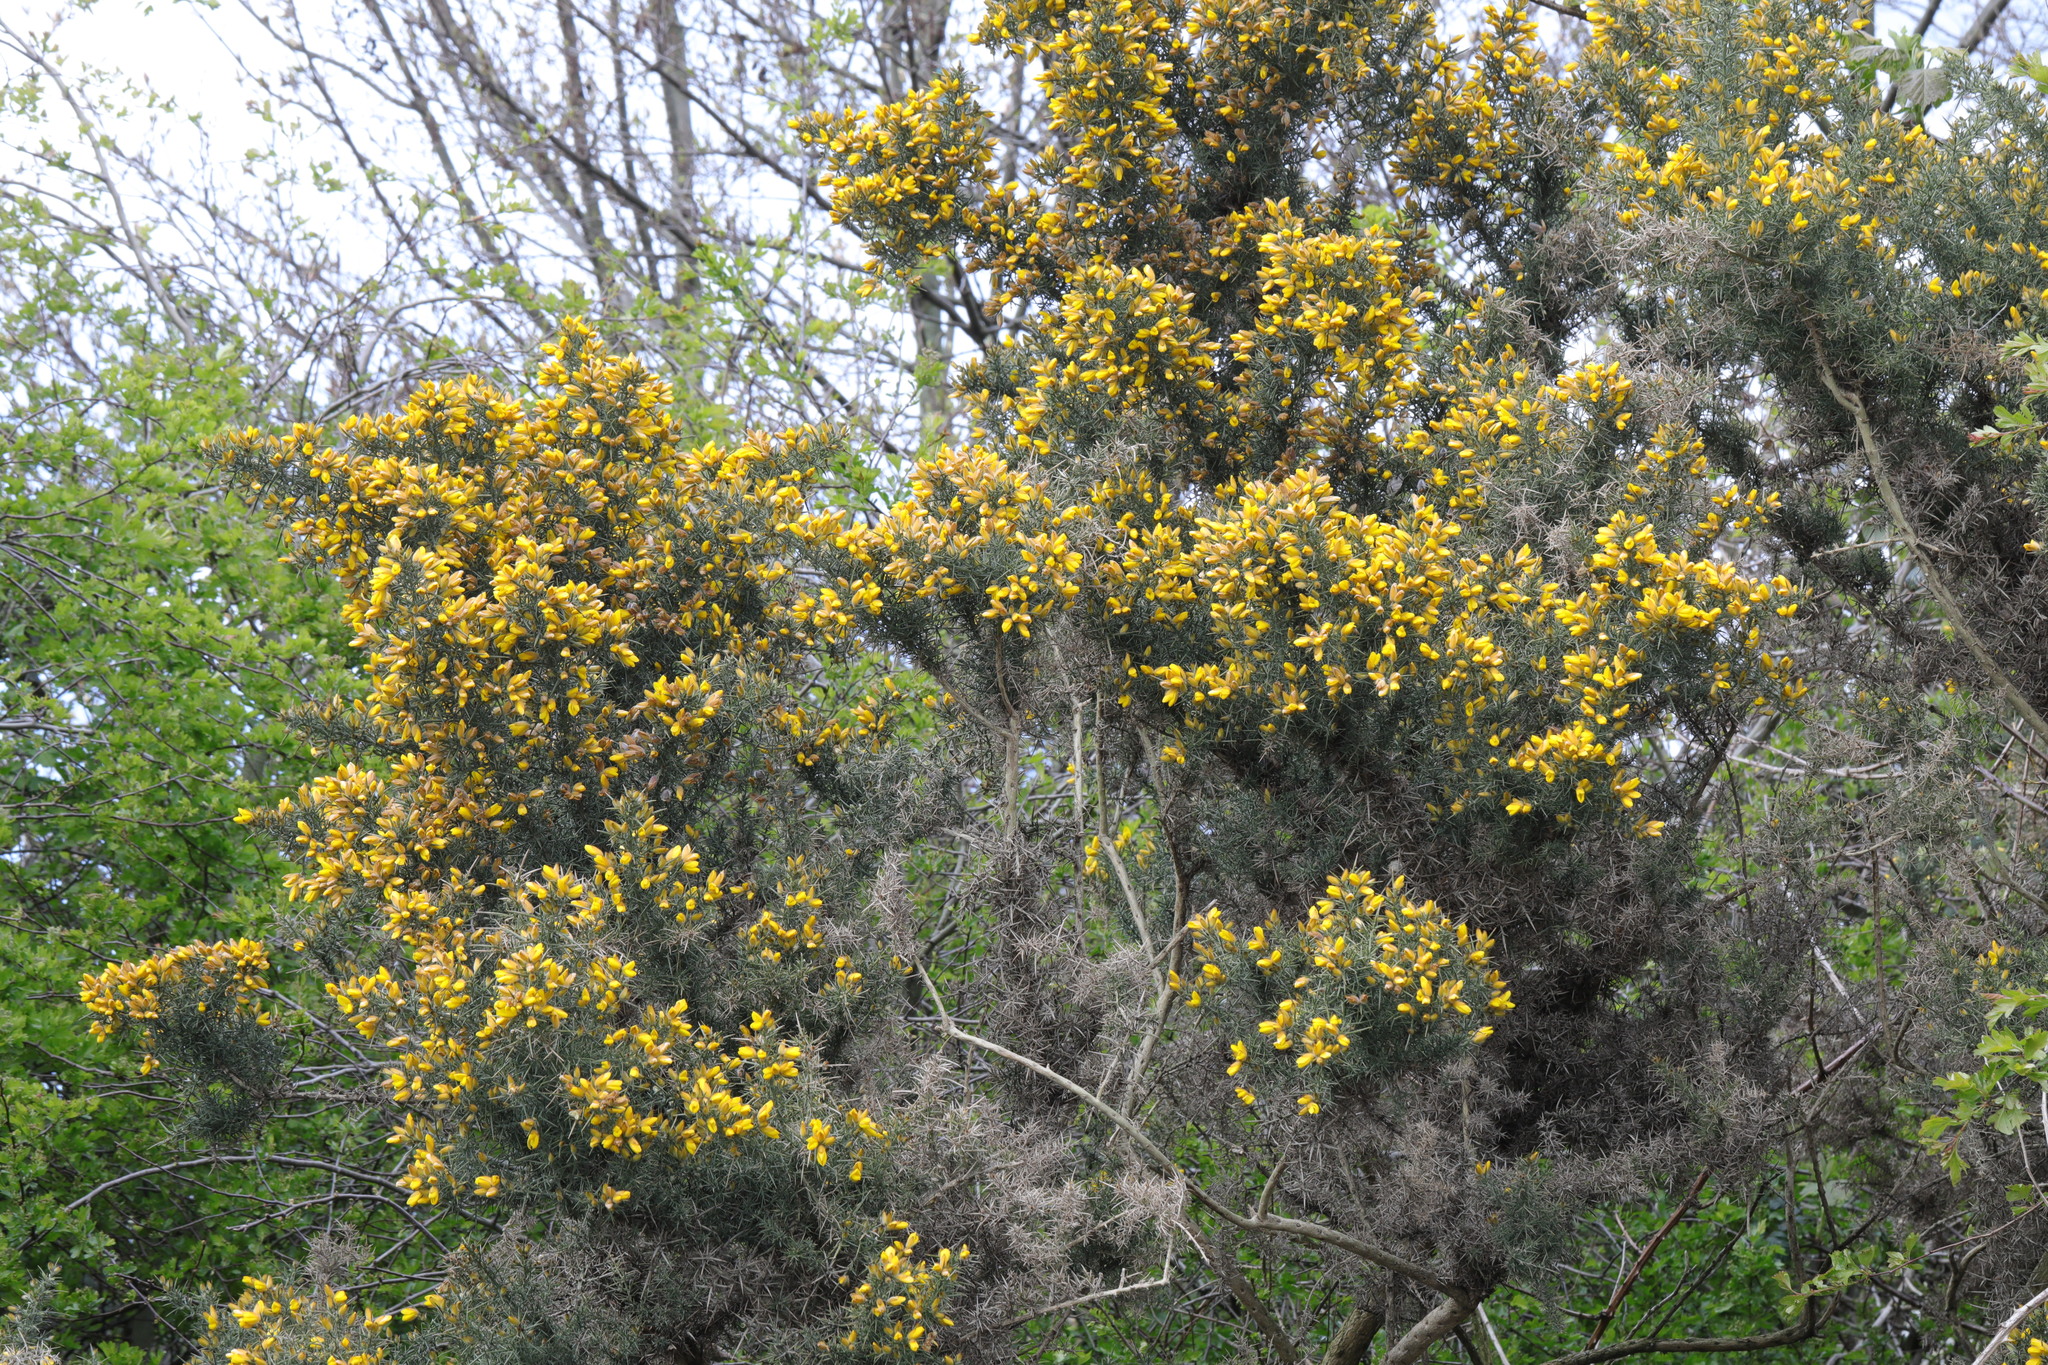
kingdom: Plantae
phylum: Tracheophyta
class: Magnoliopsida
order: Fabales
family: Fabaceae
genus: Ulex
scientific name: Ulex europaeus
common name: Common gorse
